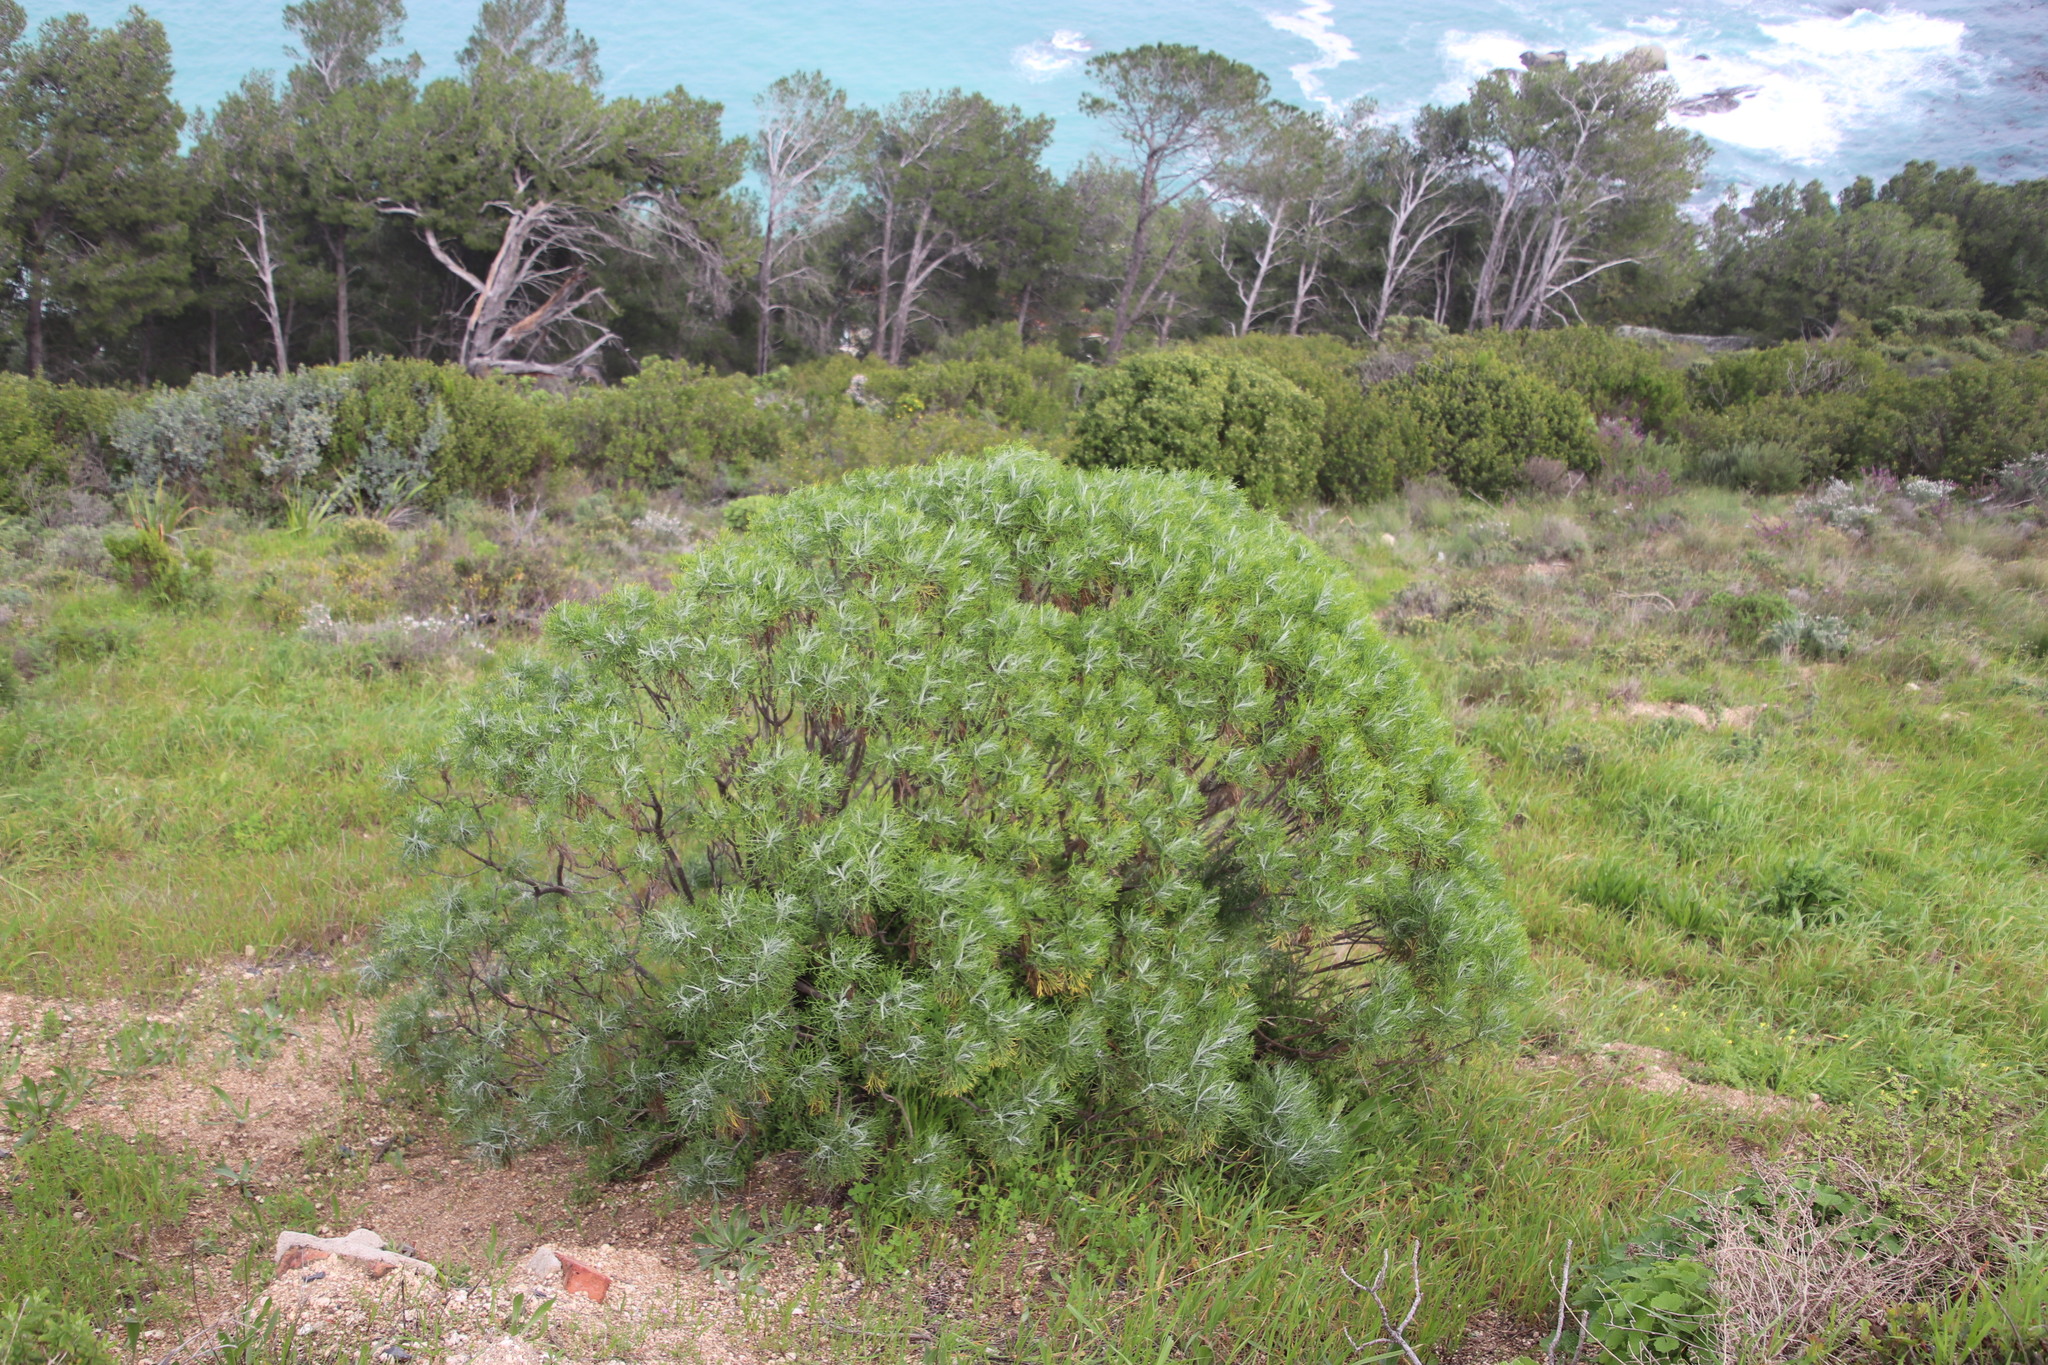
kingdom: Plantae
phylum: Tracheophyta
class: Magnoliopsida
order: Asterales
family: Asteraceae
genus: Hymenolepis
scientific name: Hymenolepis crithmifolia
